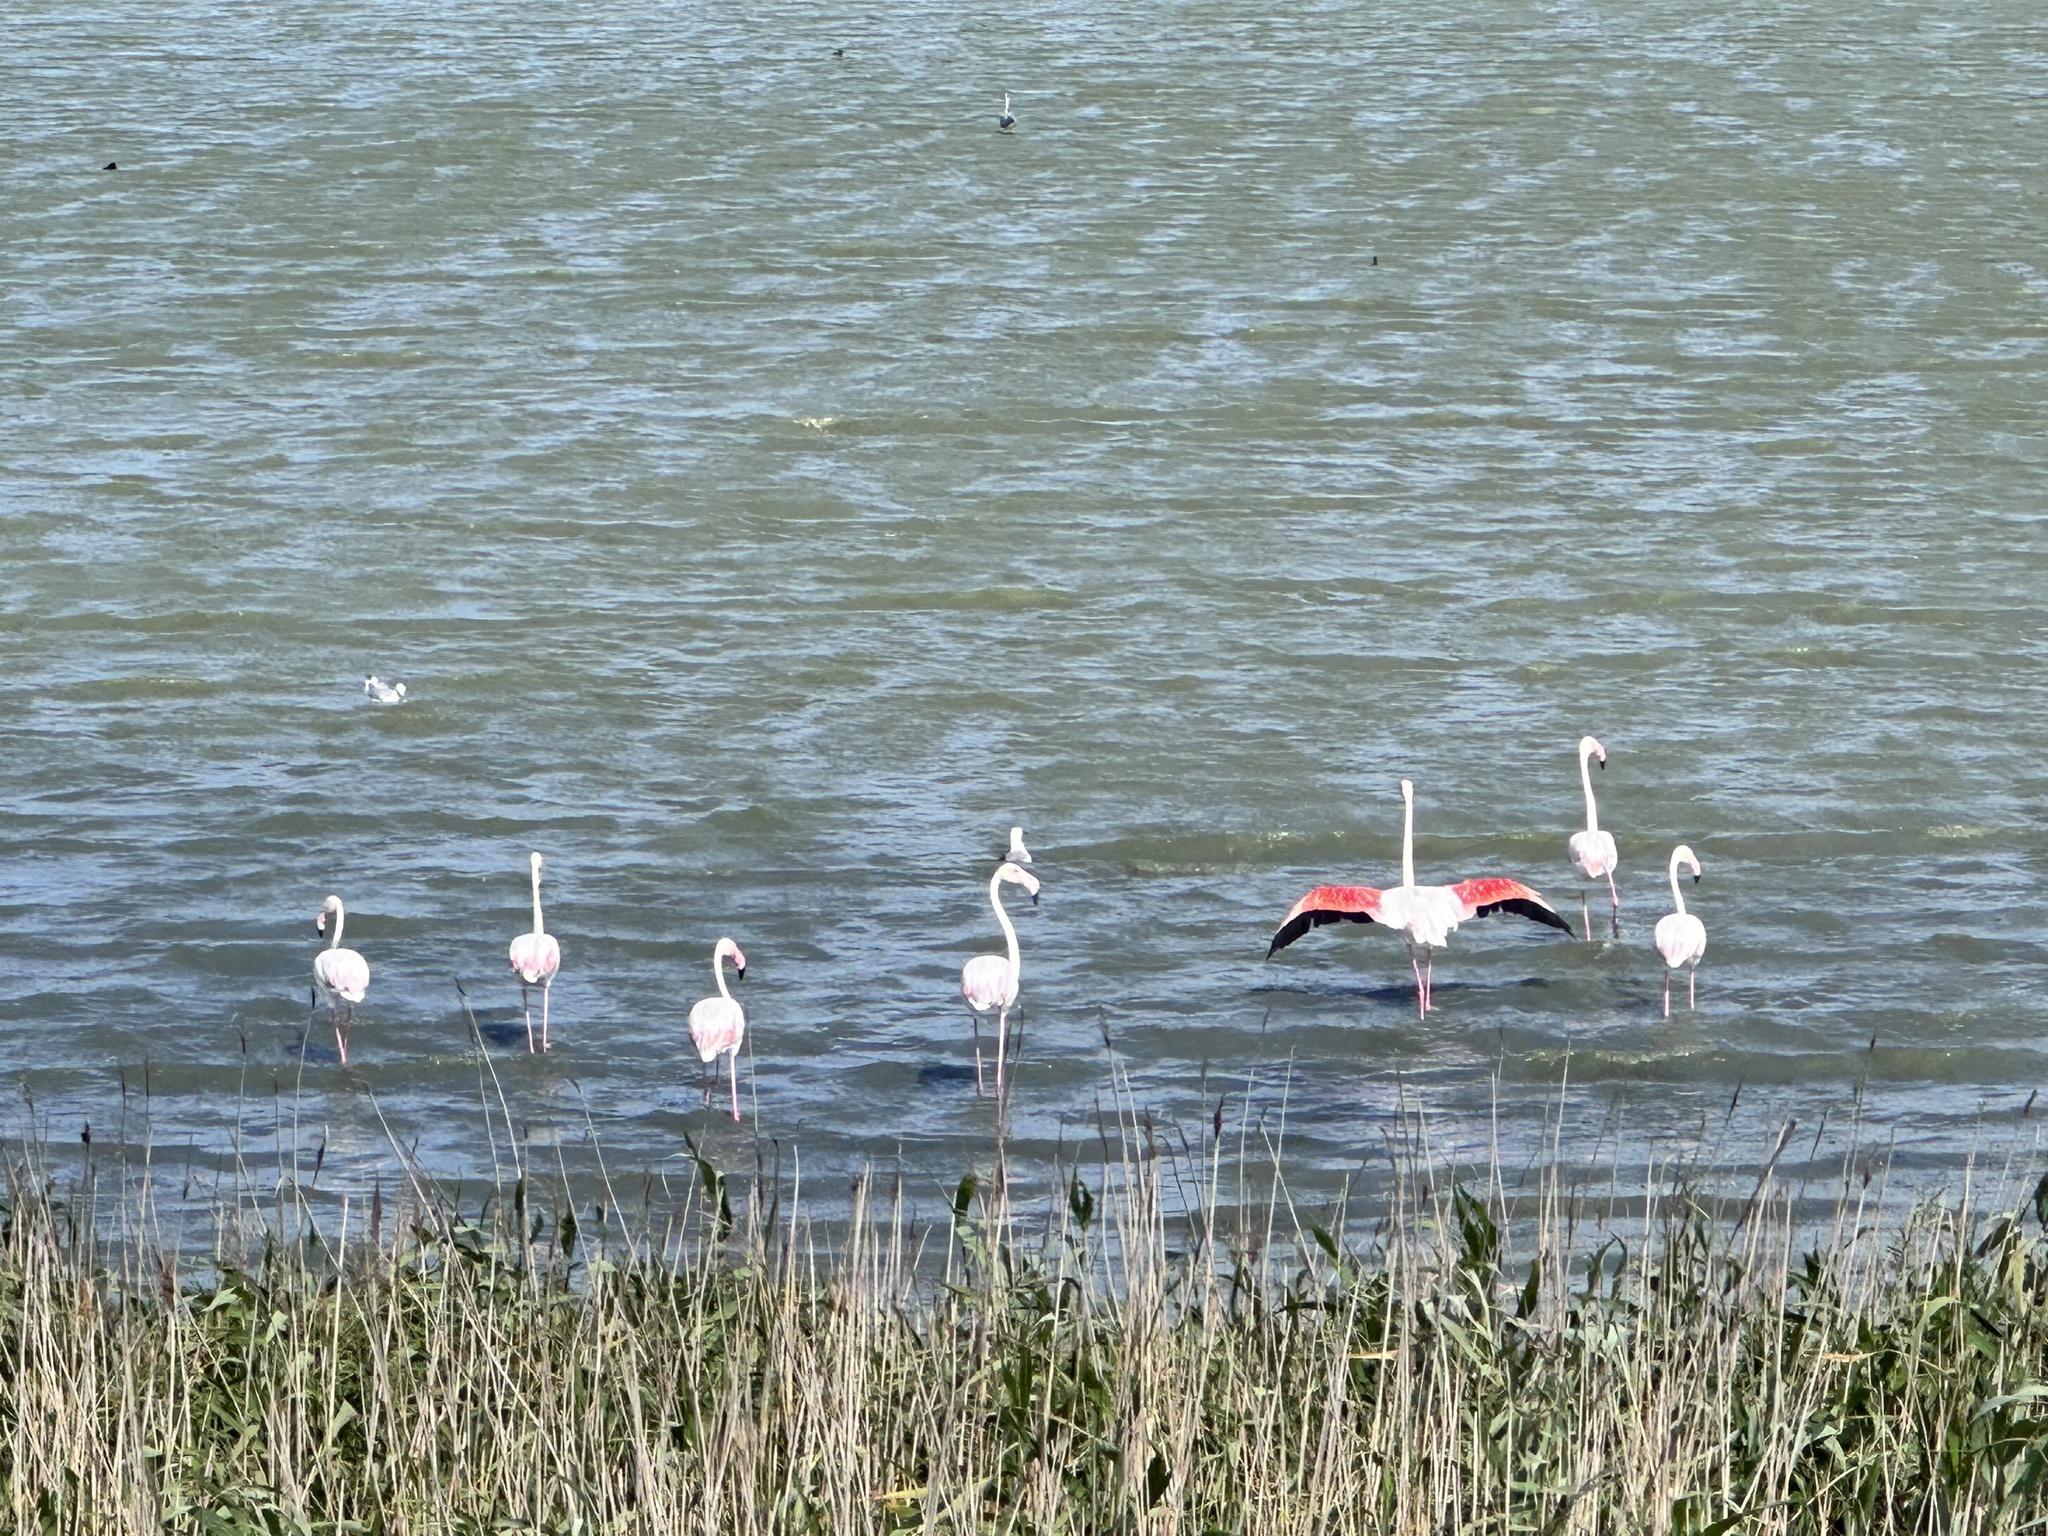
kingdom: Animalia
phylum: Chordata
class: Aves
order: Phoenicopteriformes
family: Phoenicopteridae
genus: Phoenicopterus
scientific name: Phoenicopterus roseus
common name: Greater flamingo
